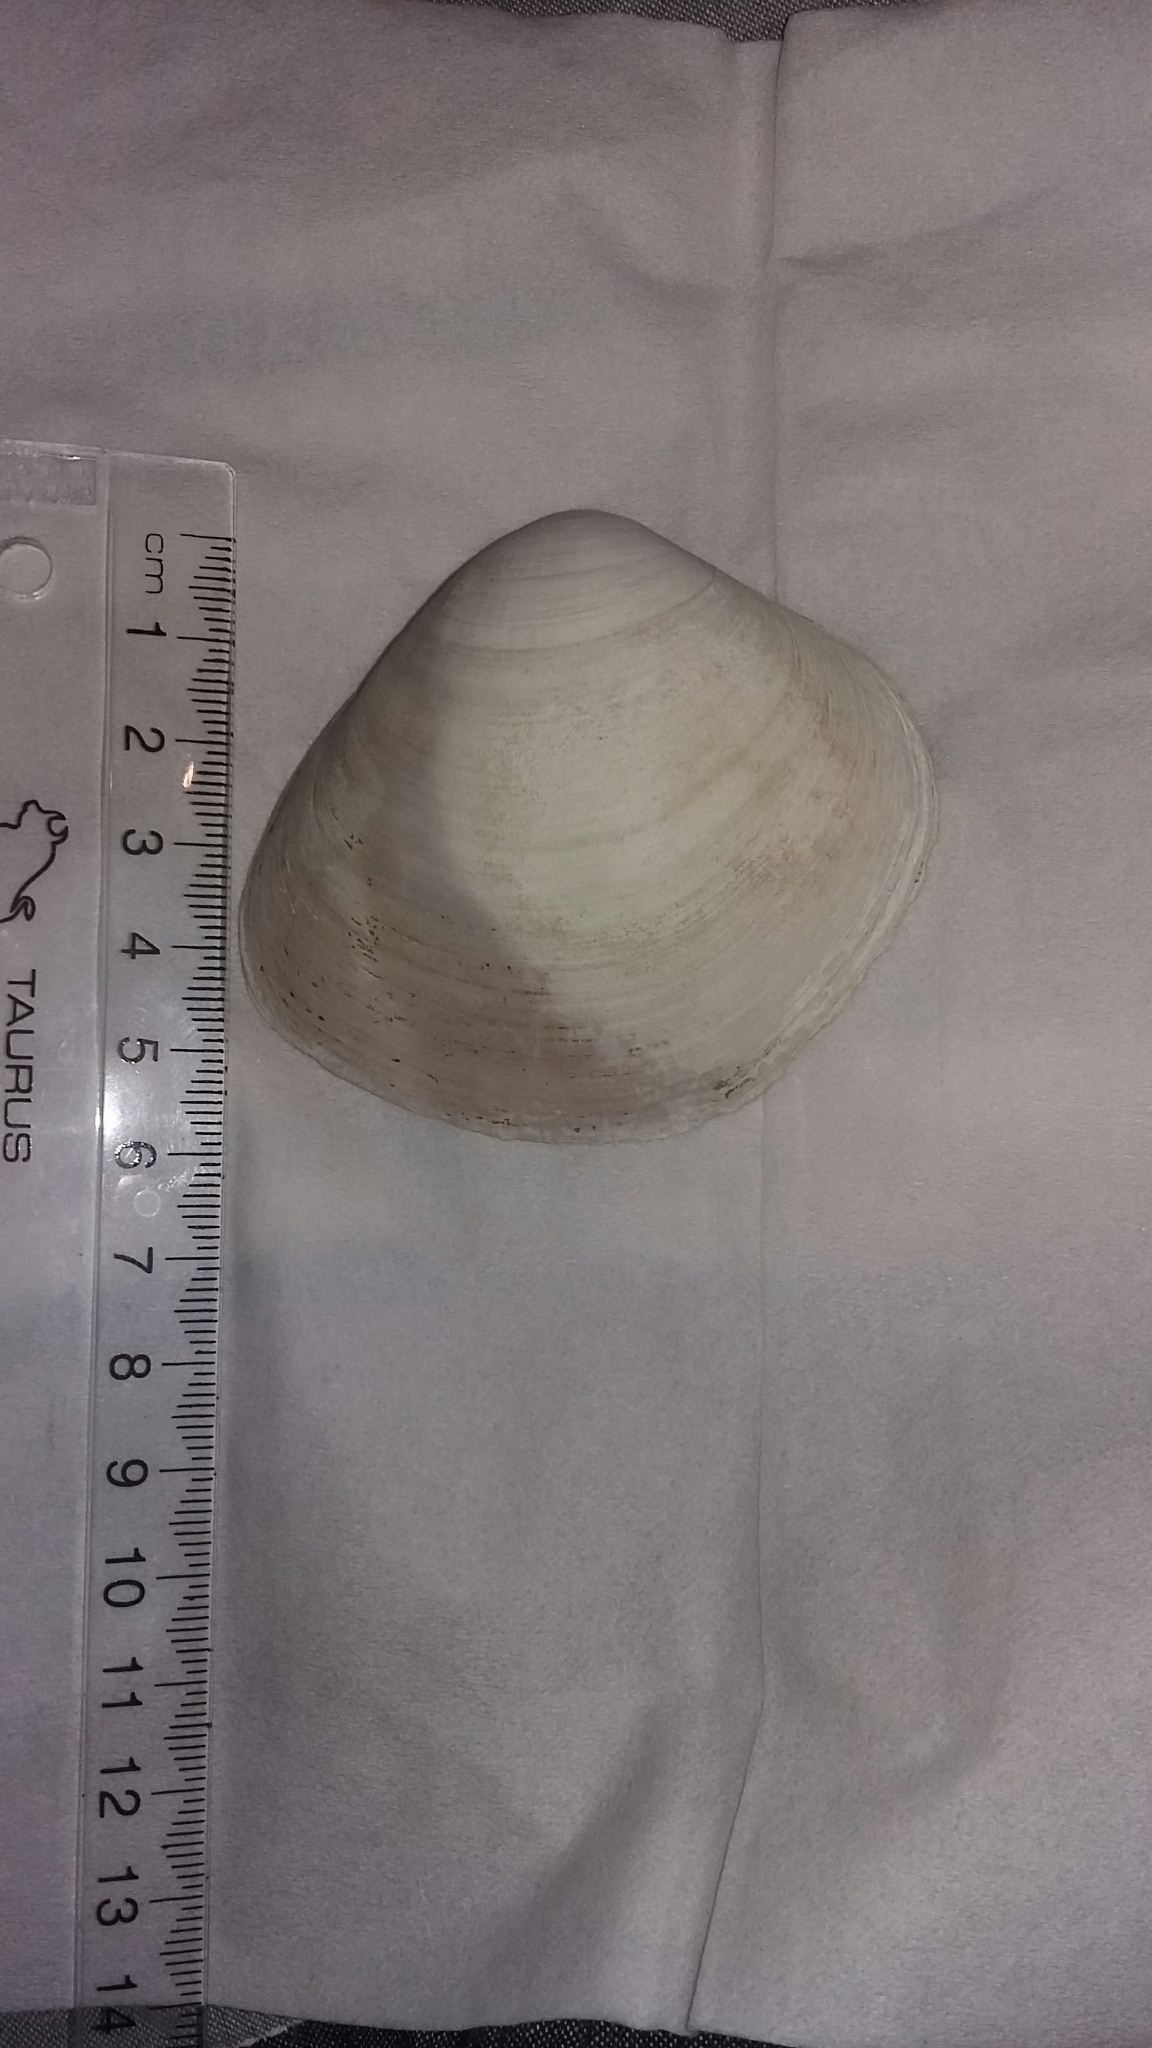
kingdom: Animalia
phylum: Mollusca
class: Bivalvia
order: Venerida
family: Mactridae
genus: Cyclomactra
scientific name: Cyclomactra ovata
